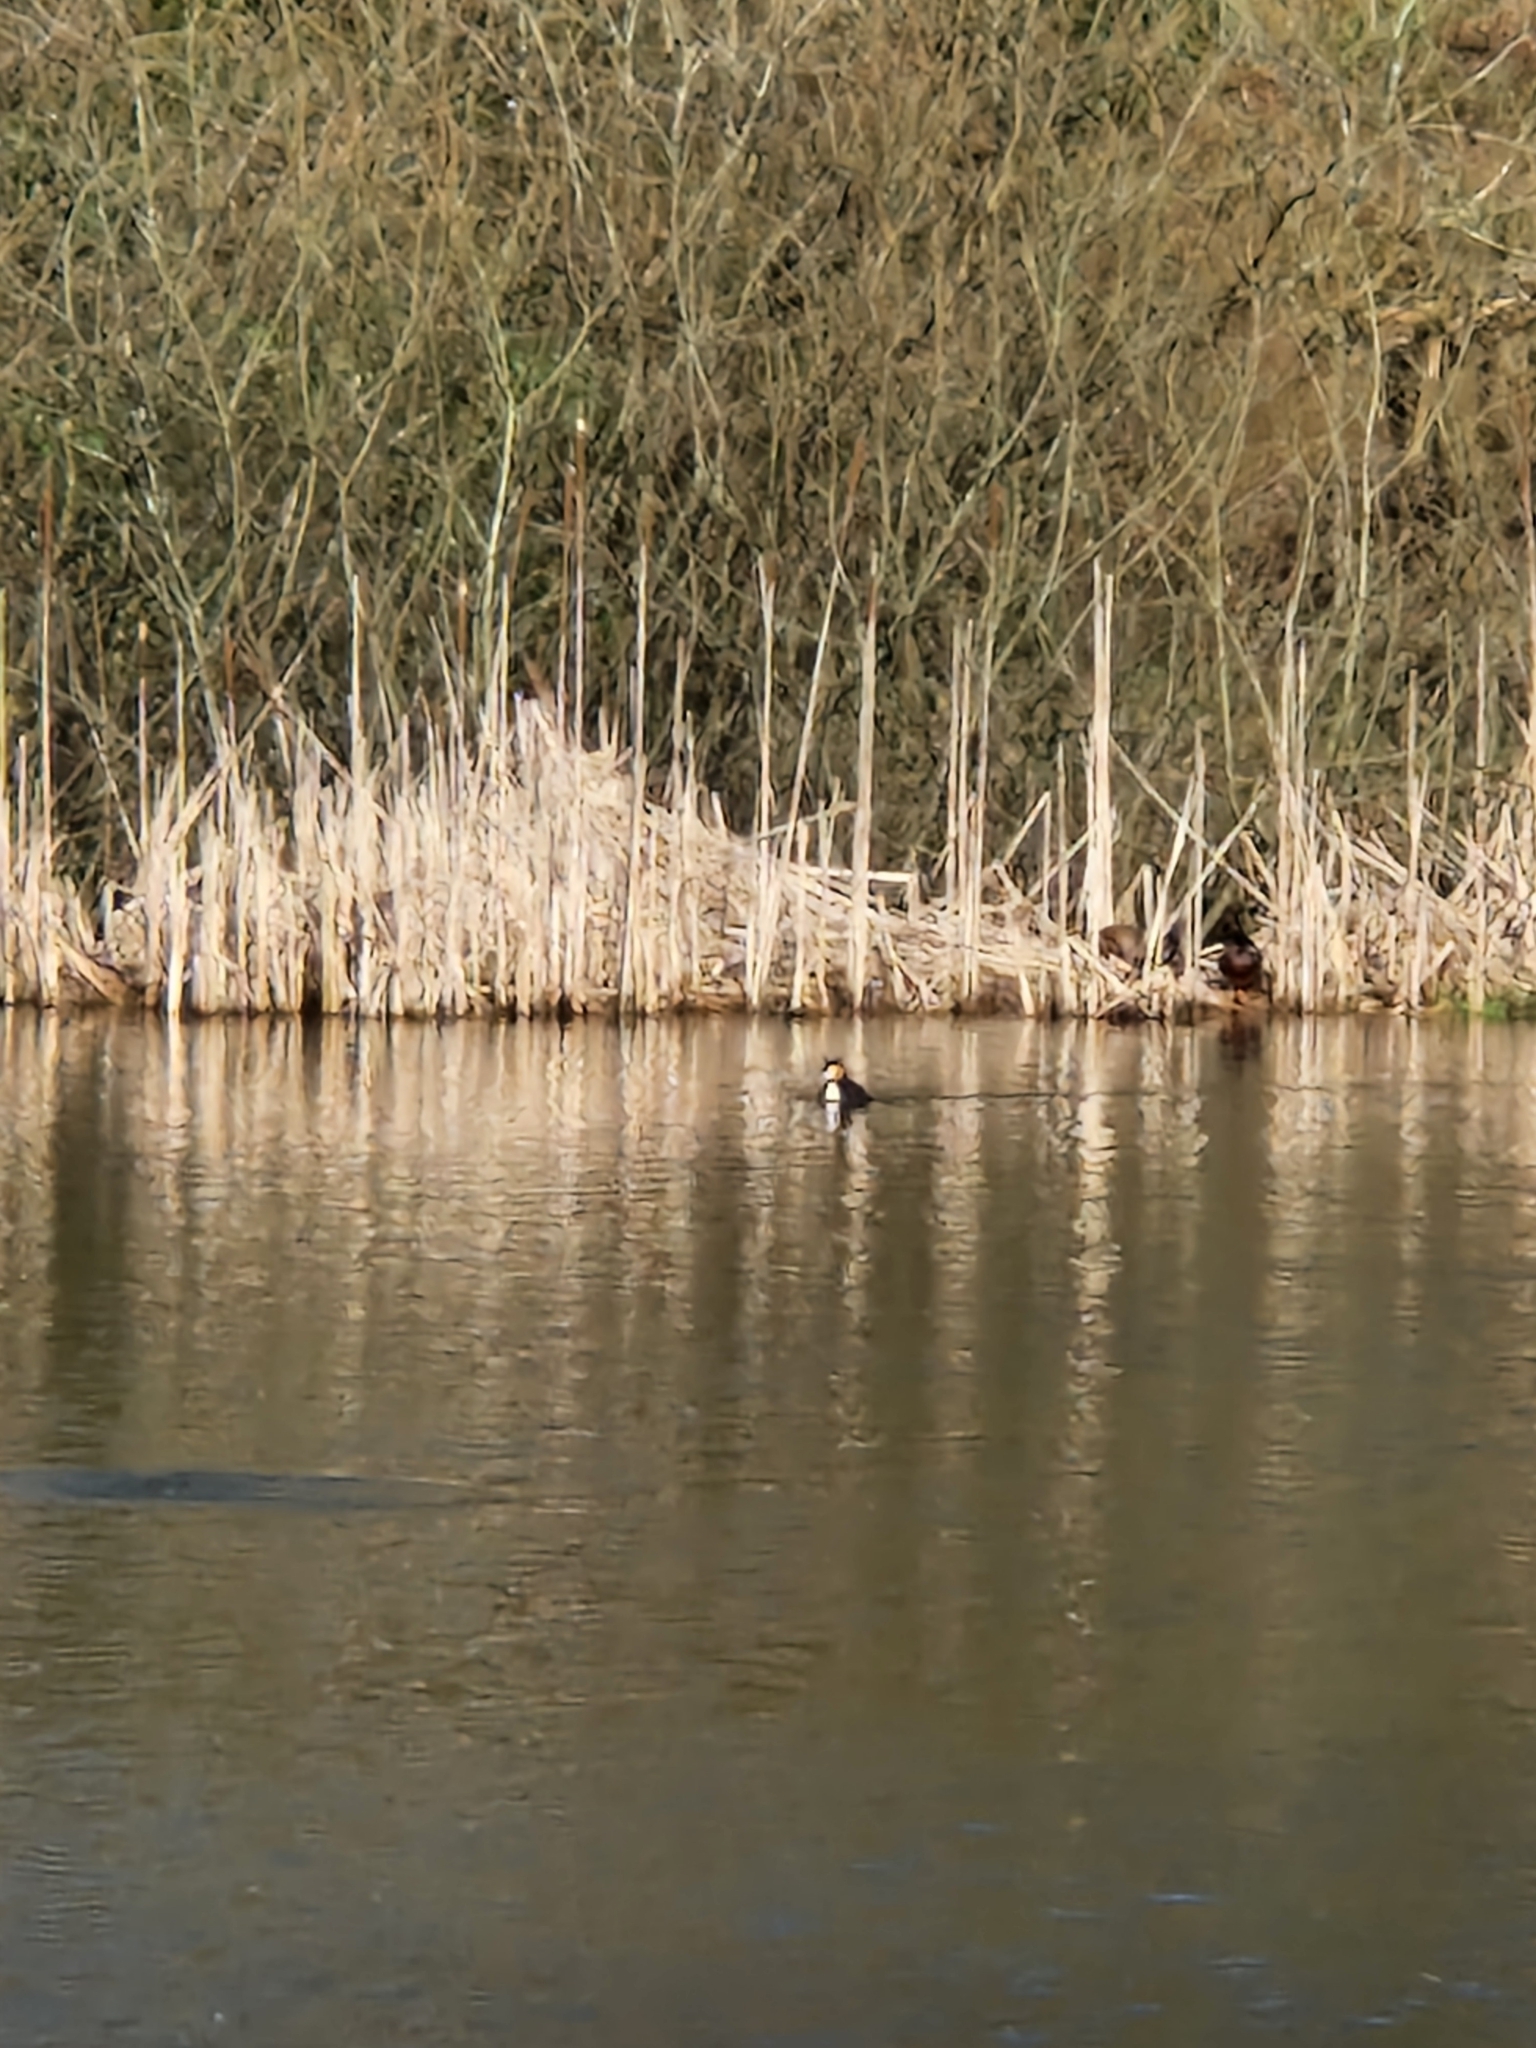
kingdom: Animalia
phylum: Chordata
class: Aves
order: Podicipediformes
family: Podicipedidae
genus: Podiceps
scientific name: Podiceps cristatus
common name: Great crested grebe
